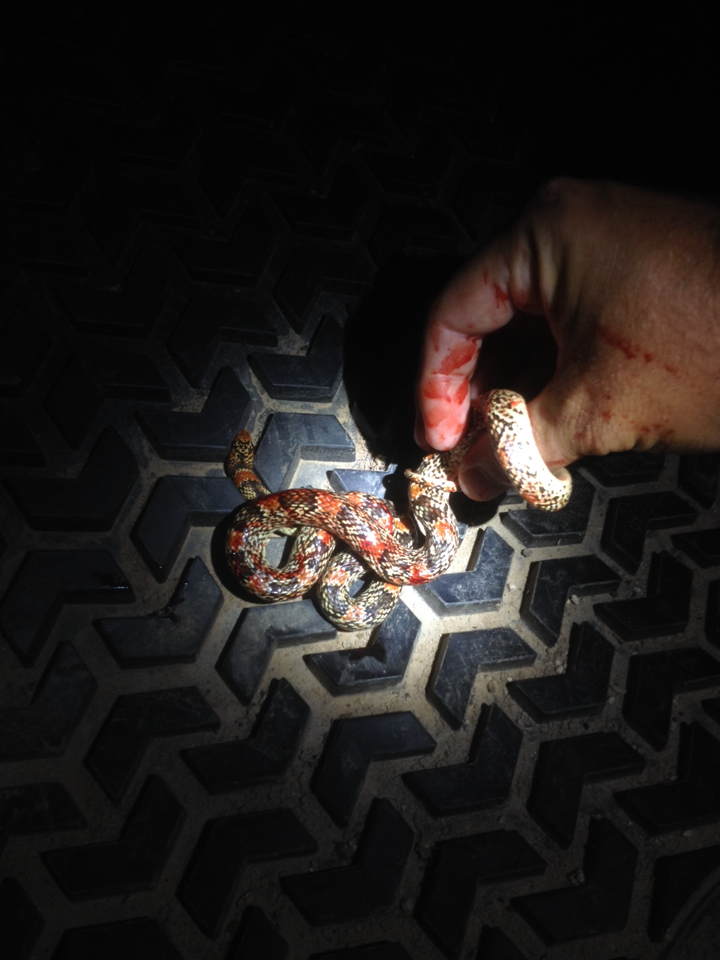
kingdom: Animalia
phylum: Chordata
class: Squamata
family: Colubridae
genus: Rhinocheilus
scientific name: Rhinocheilus lecontei
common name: Longnose snake
